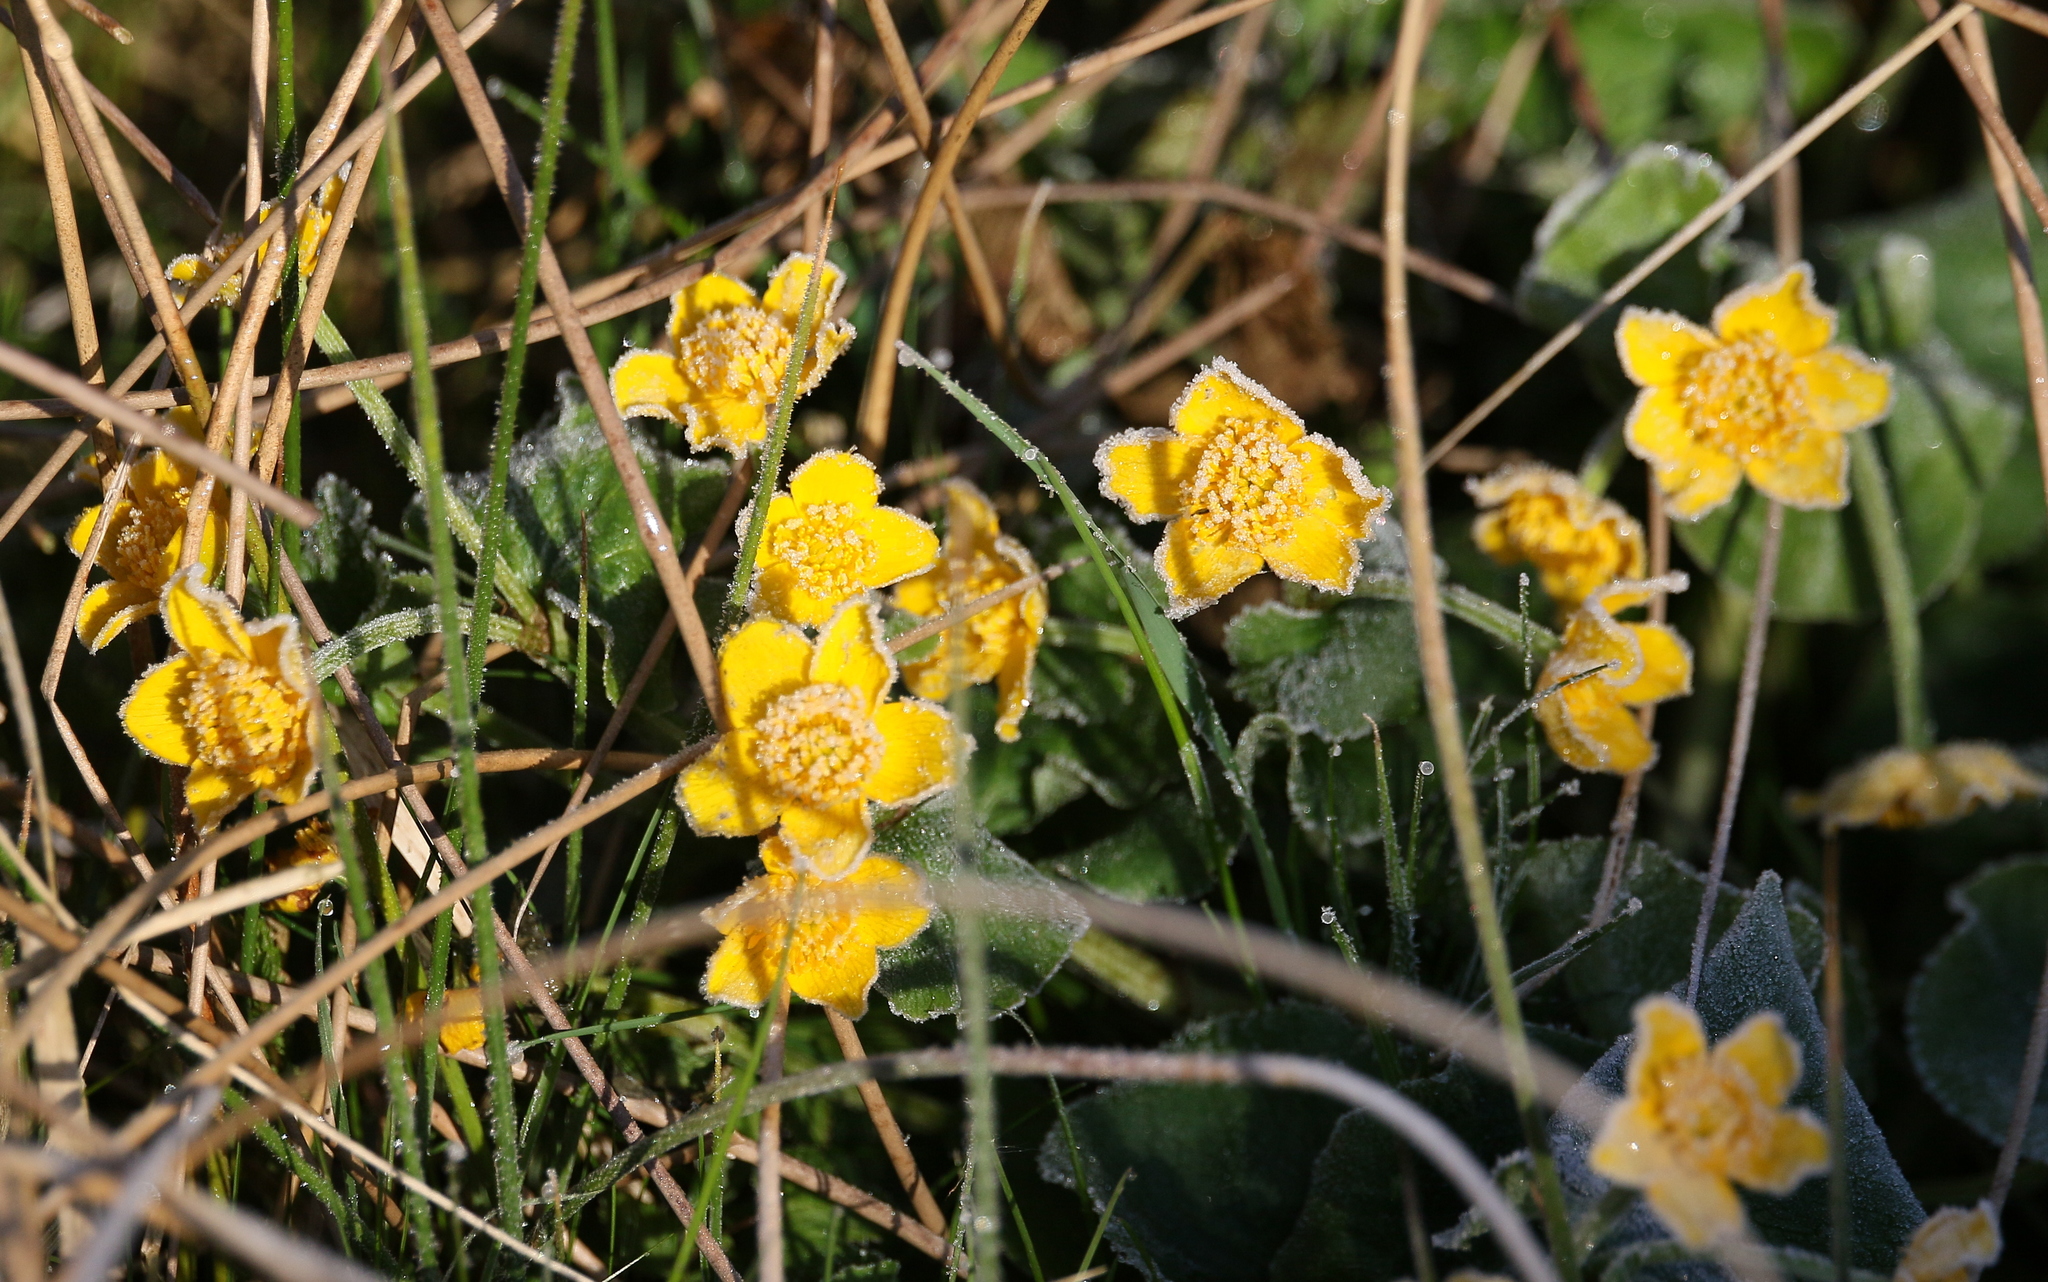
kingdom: Plantae
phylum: Tracheophyta
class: Magnoliopsida
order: Ranunculales
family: Ranunculaceae
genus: Caltha
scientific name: Caltha palustris
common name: Marsh marigold
